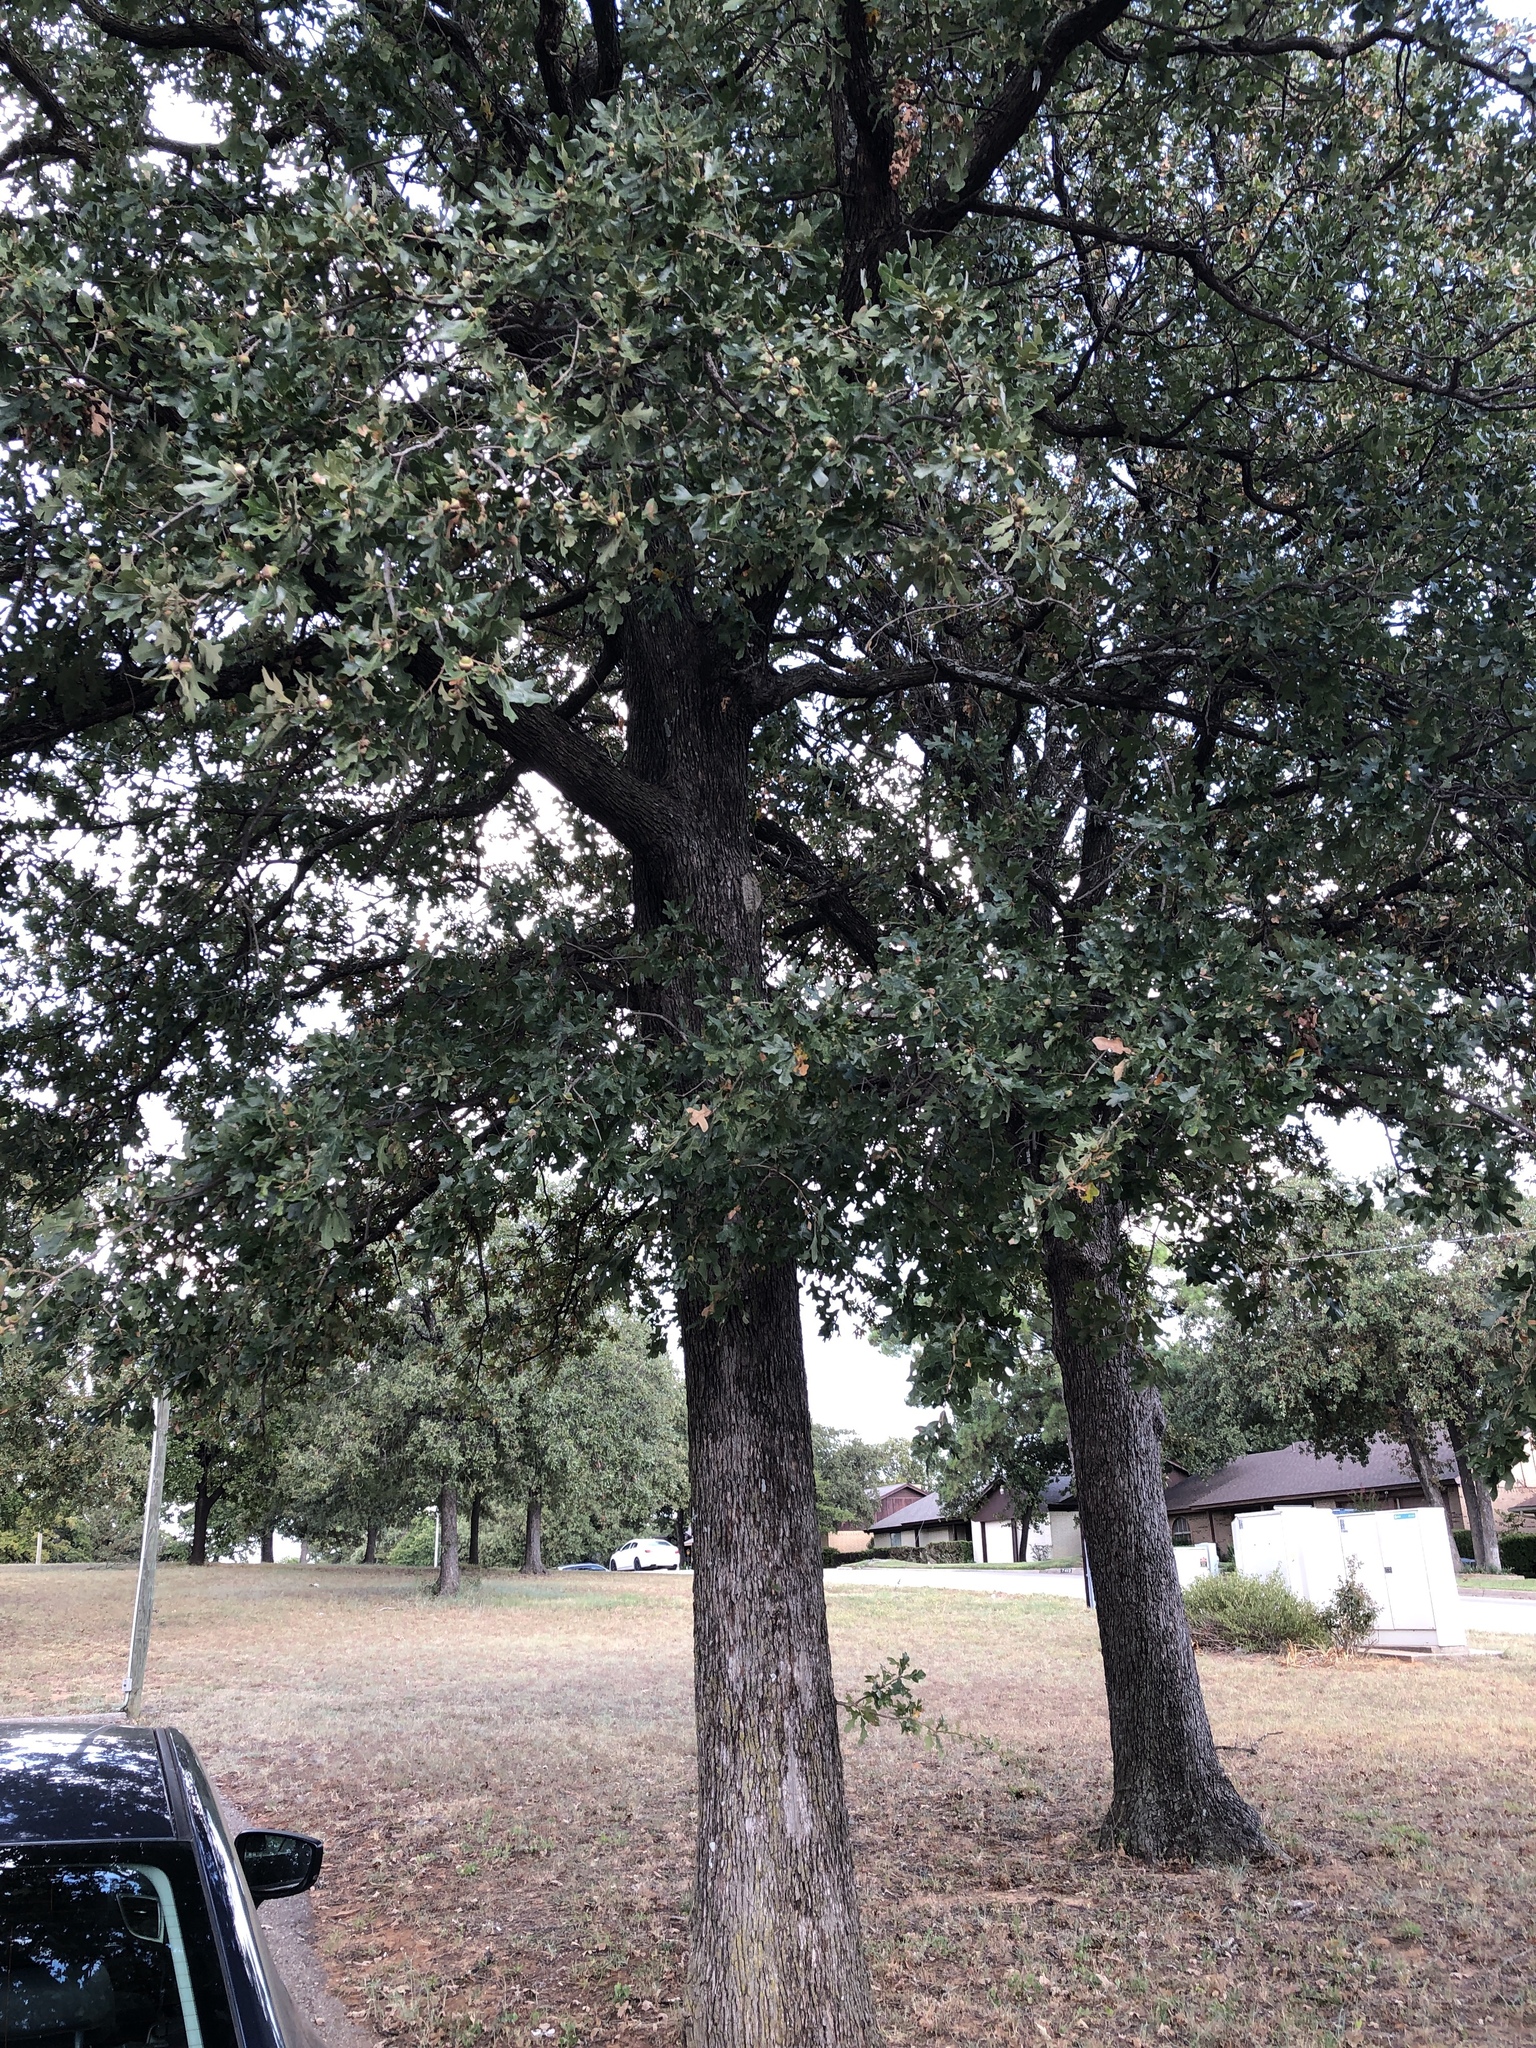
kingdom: Plantae
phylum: Tracheophyta
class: Magnoliopsida
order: Fagales
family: Fagaceae
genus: Quercus
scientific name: Quercus stellata
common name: Post oak
